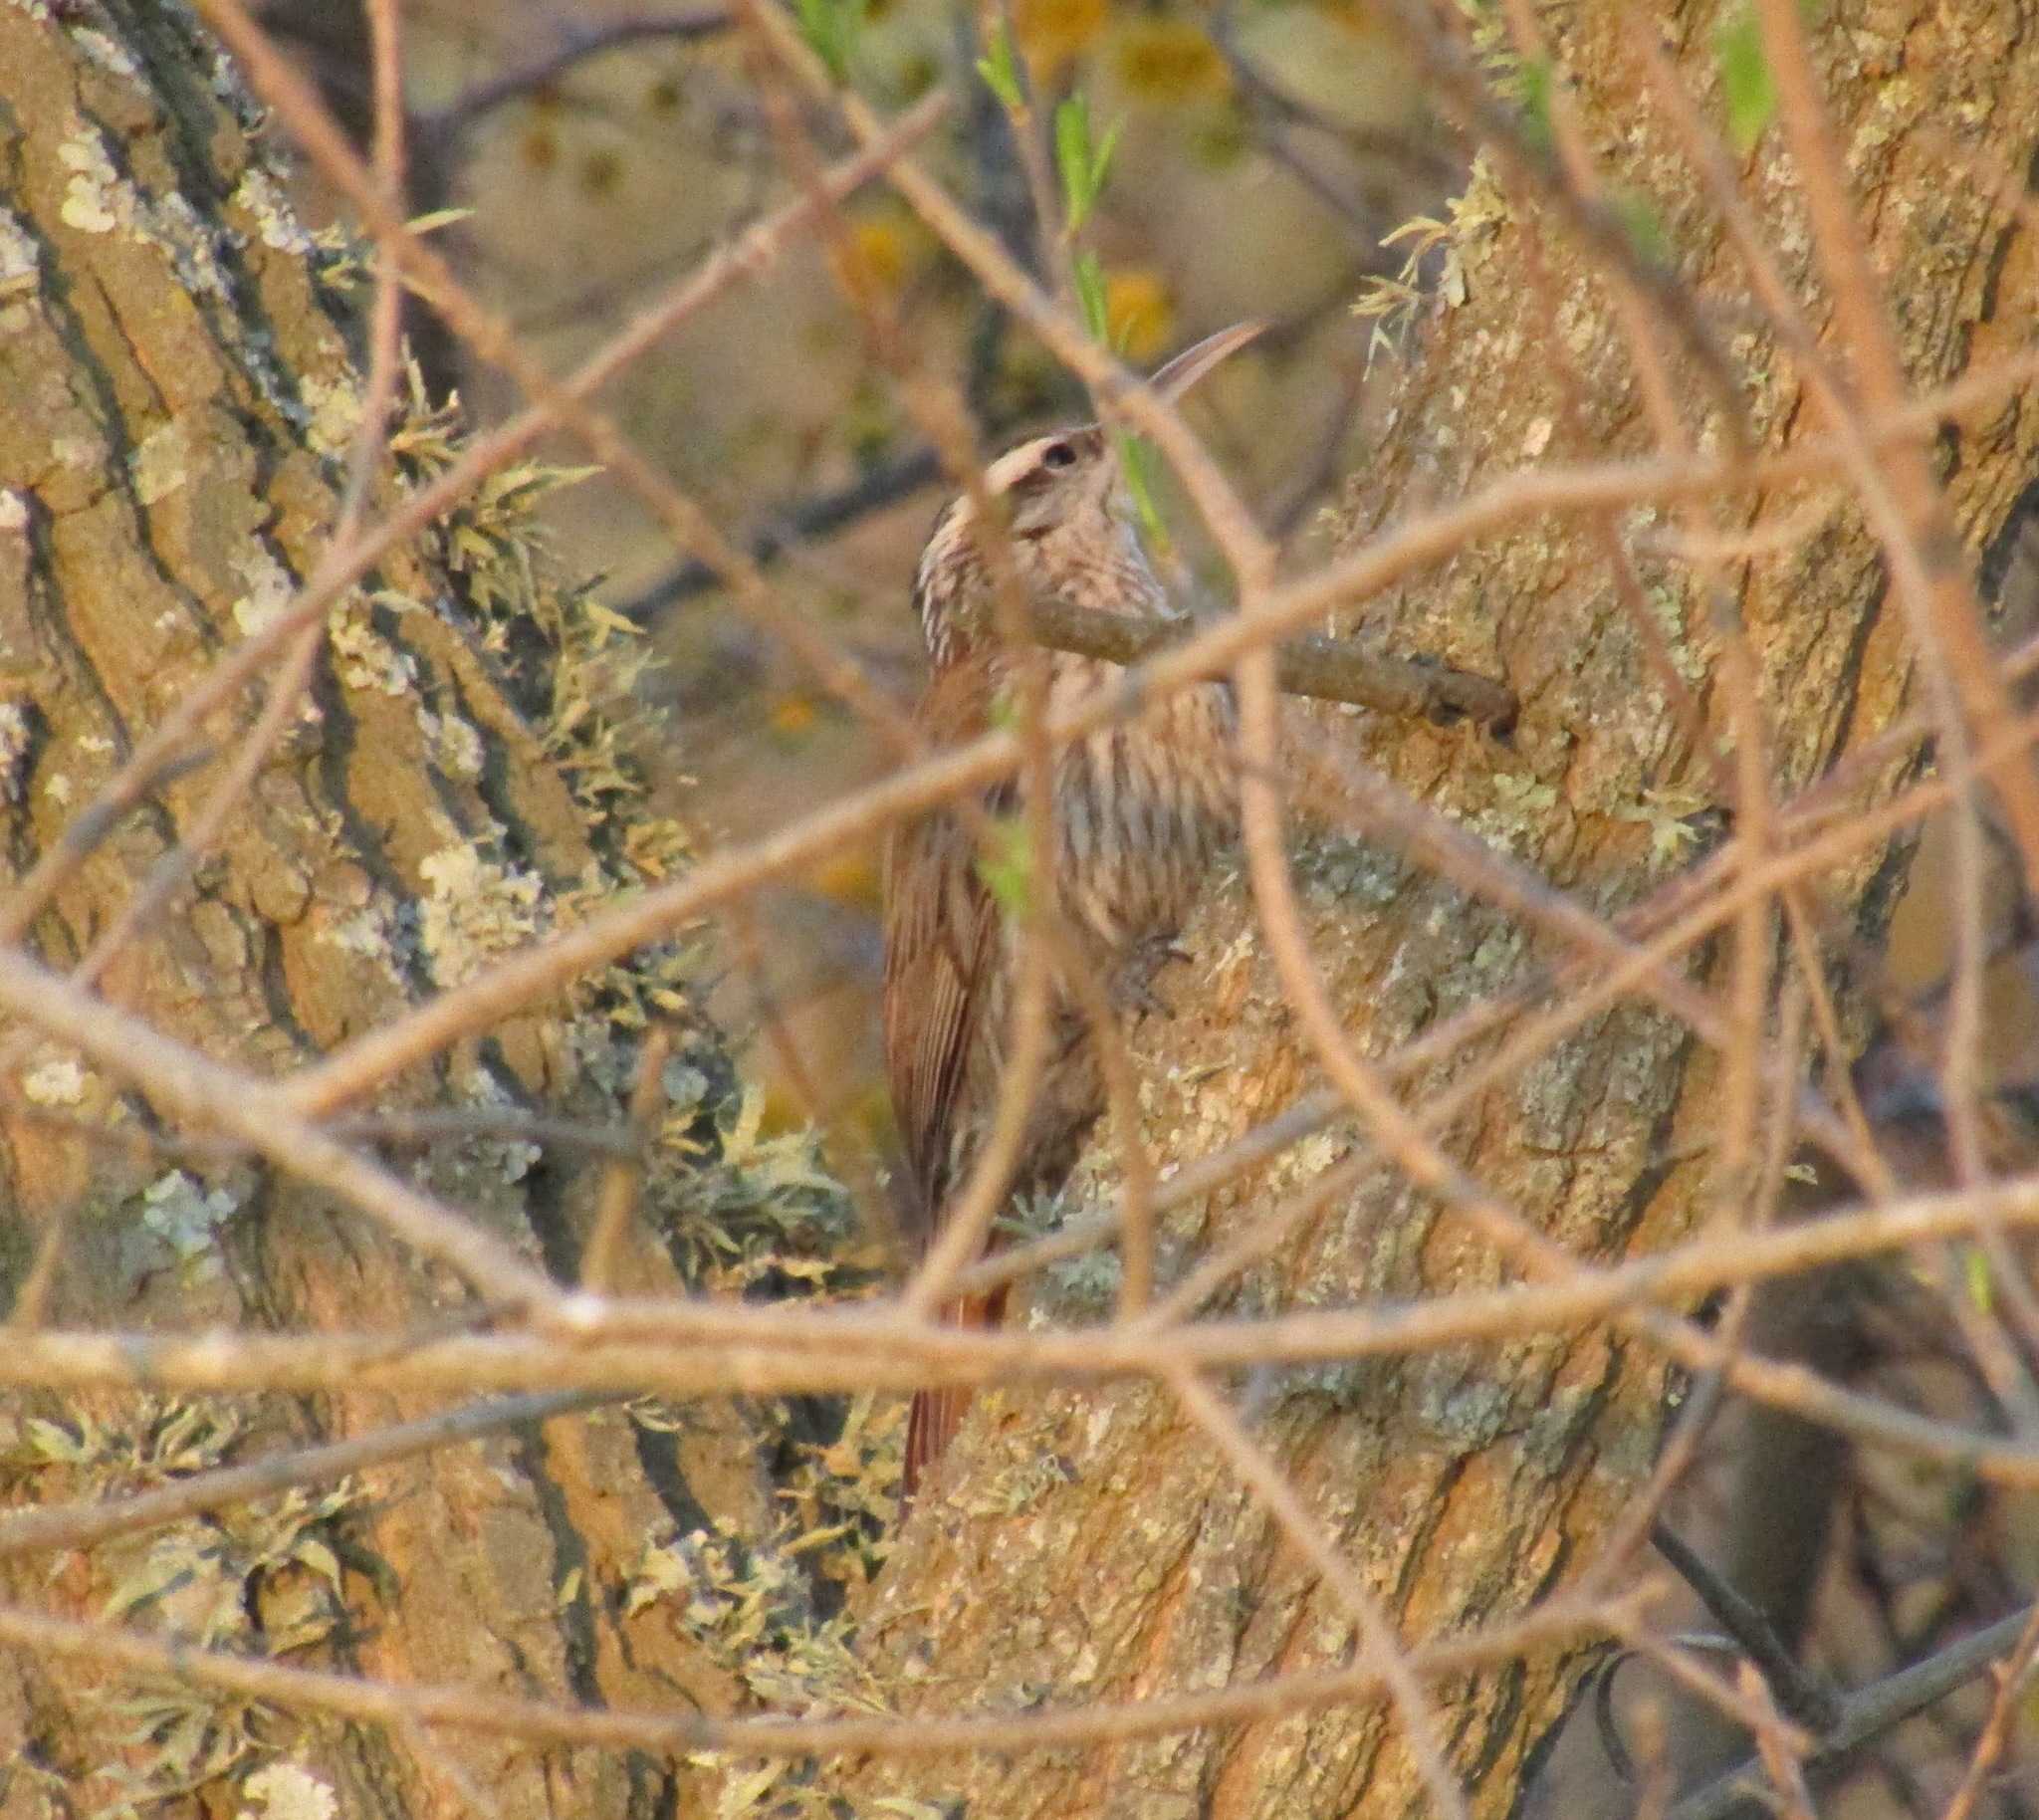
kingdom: Animalia
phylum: Chordata
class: Aves
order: Passeriformes
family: Furnariidae
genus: Lepidocolaptes
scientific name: Lepidocolaptes angustirostris
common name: Narrow-billed woodcreeper
